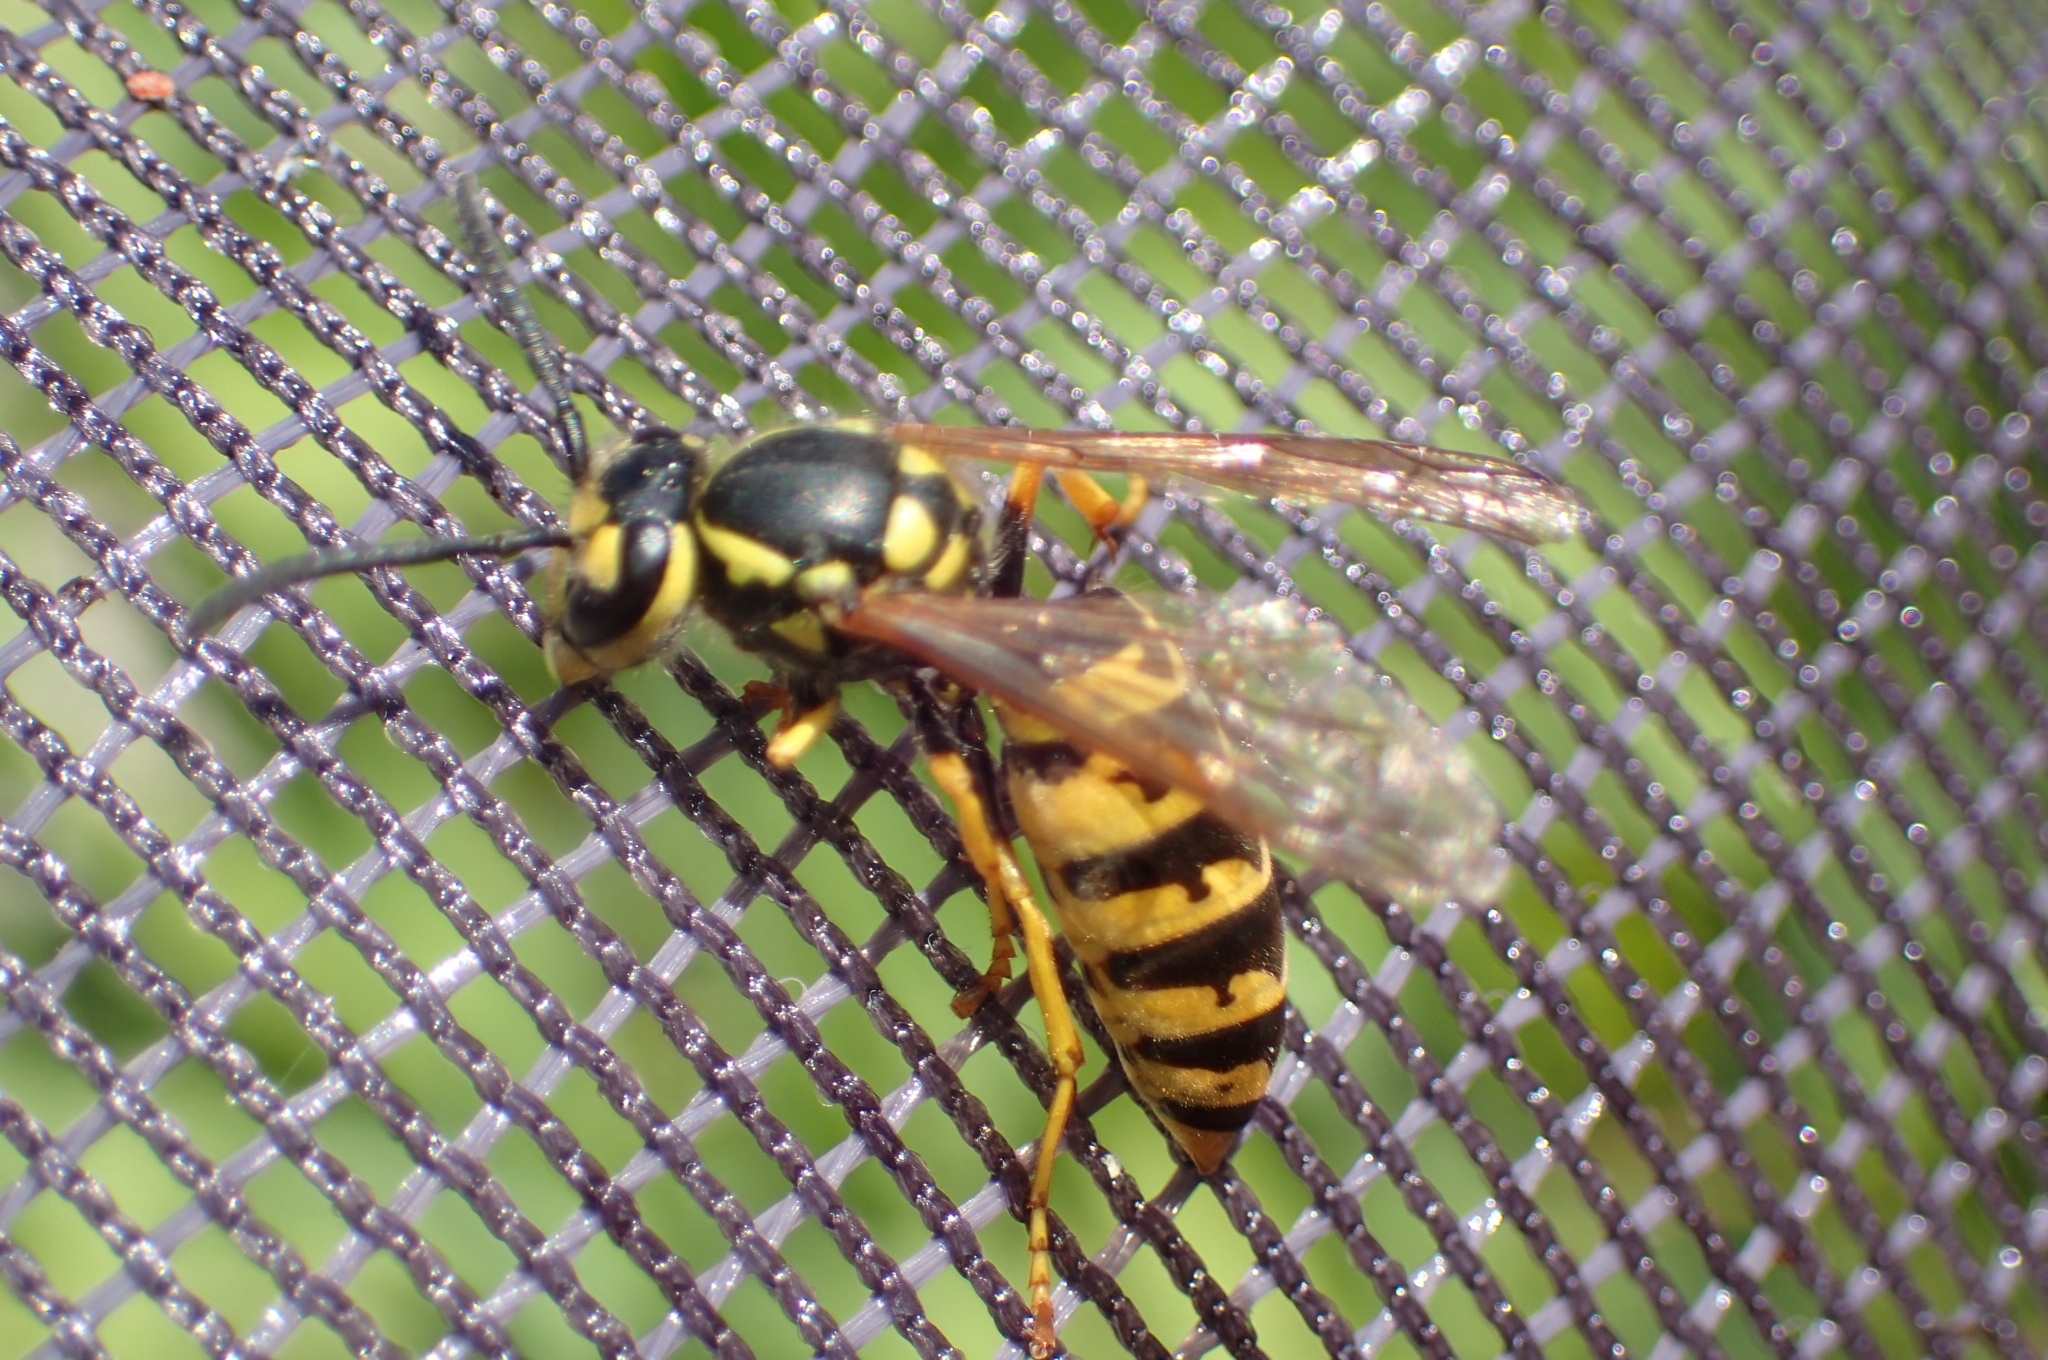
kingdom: Animalia
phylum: Arthropoda
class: Insecta
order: Hymenoptera
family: Vespidae
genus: Vespula
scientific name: Vespula germanica
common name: German wasp
